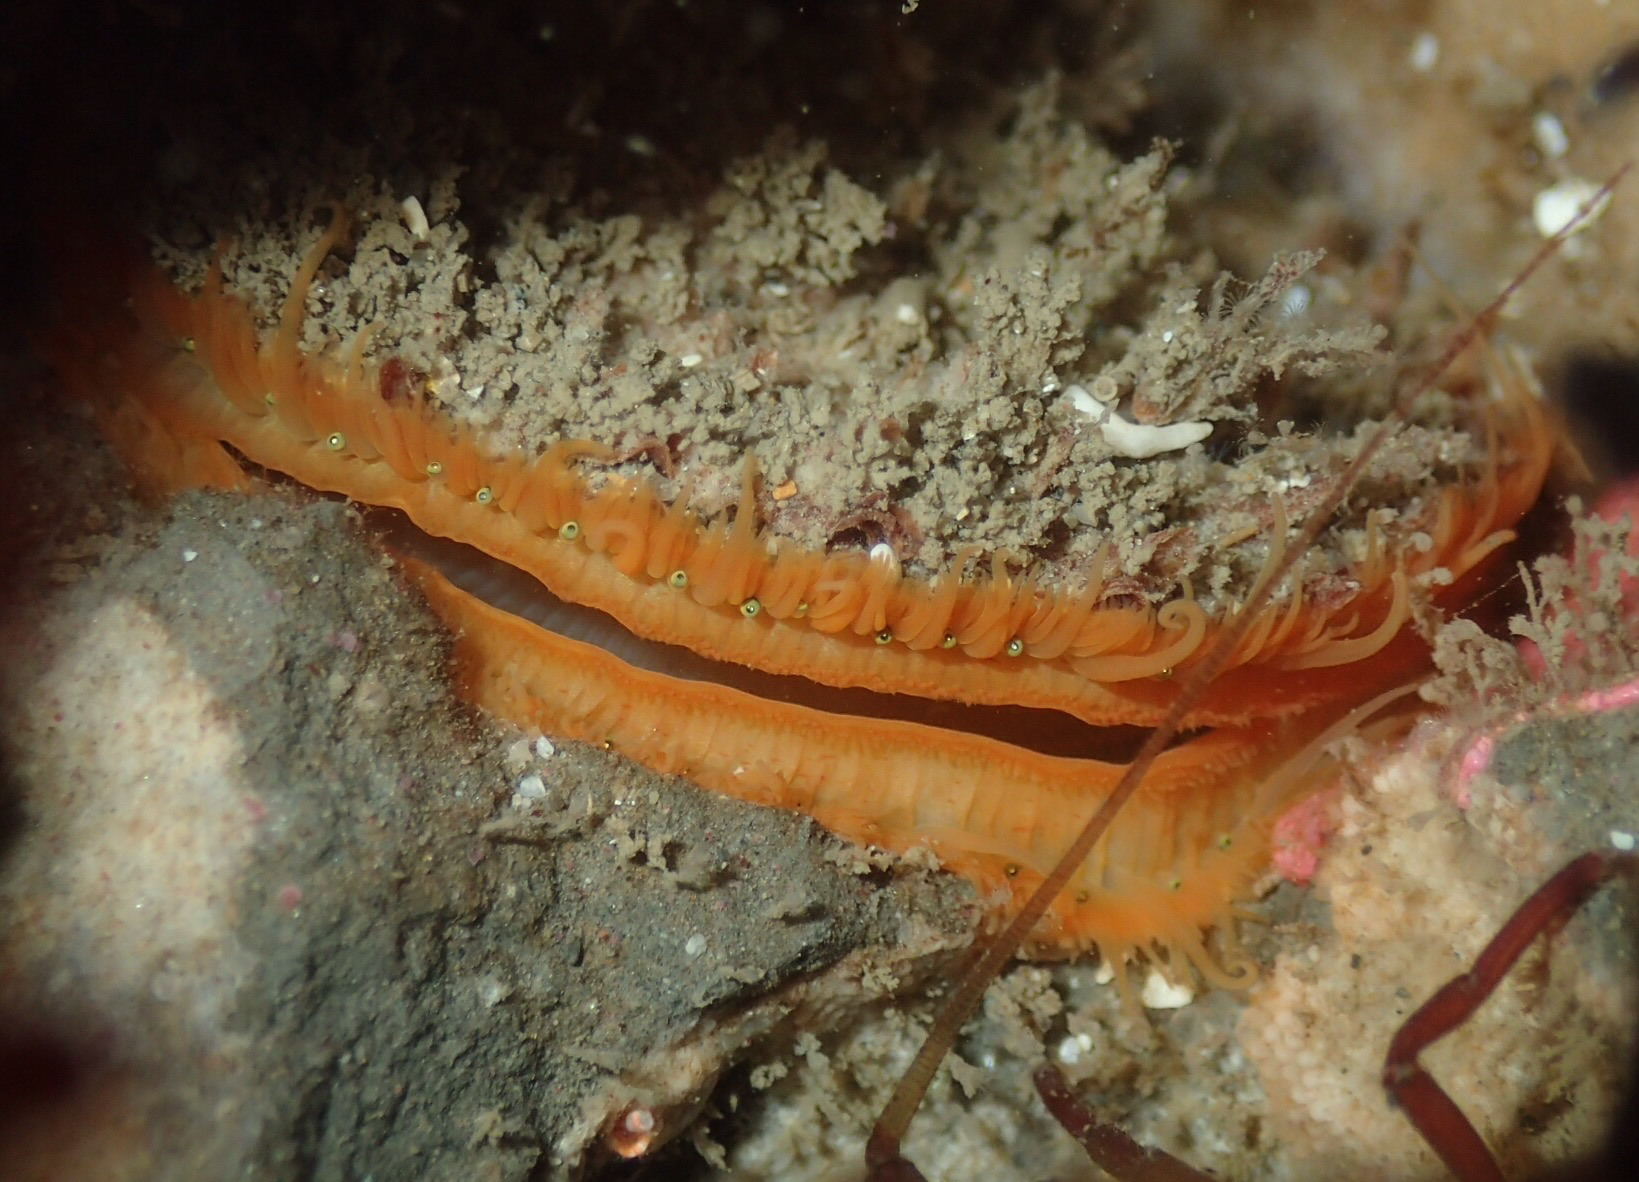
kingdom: Animalia
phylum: Mollusca
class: Bivalvia
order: Pectinida
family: Pectinidae
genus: Crassadoma
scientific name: Crassadoma gigantea
